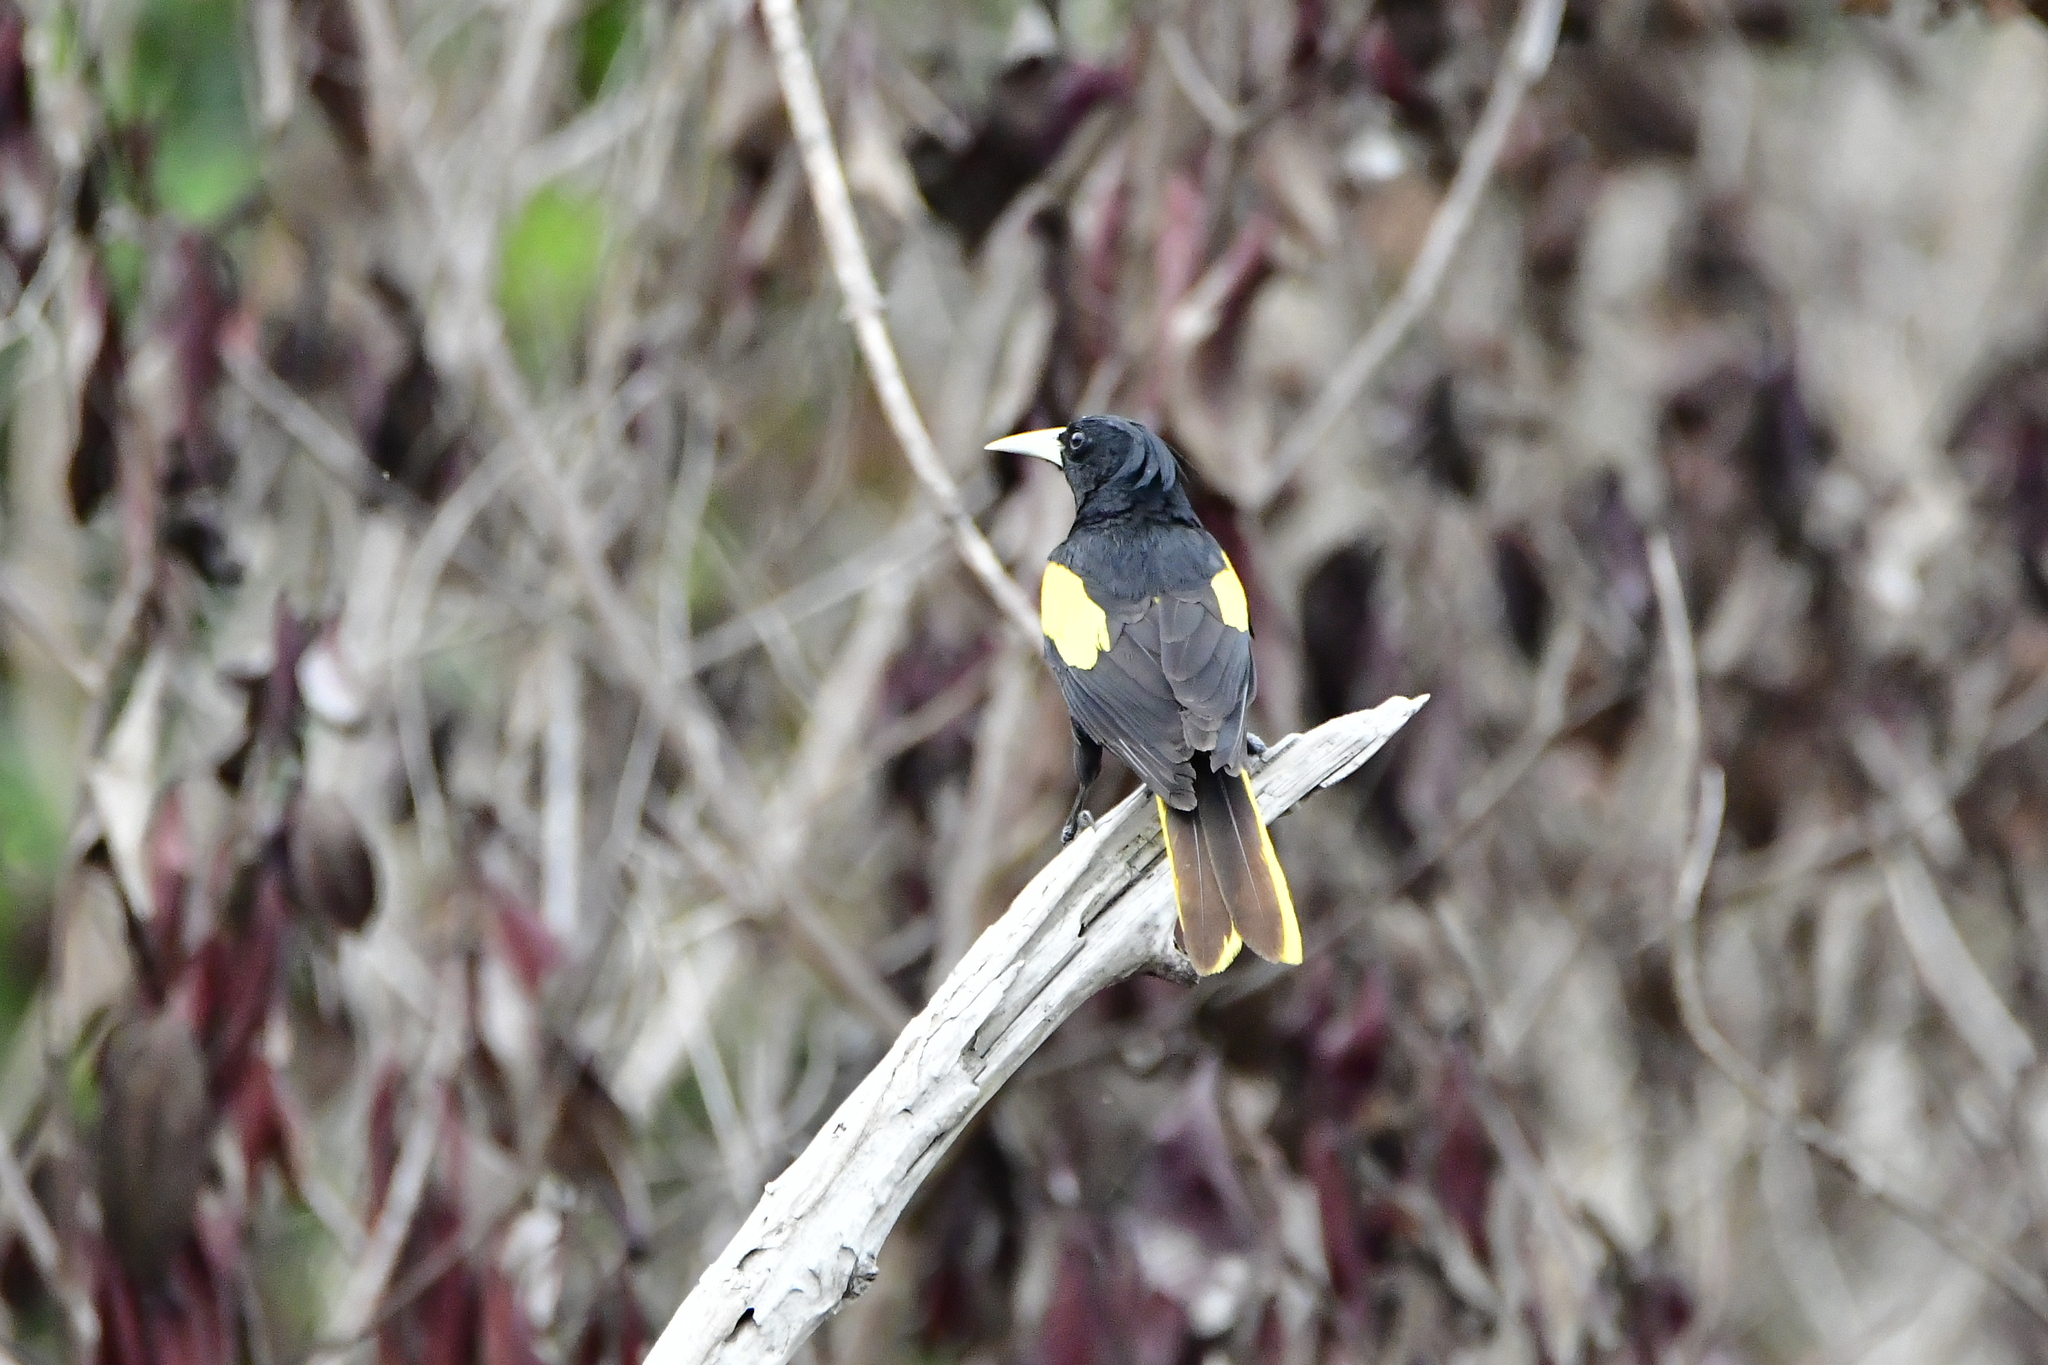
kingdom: Animalia
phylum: Chordata
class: Aves
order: Passeriformes
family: Icteridae
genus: Cacicus
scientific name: Cacicus melanicterus
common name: Yellow-winged cacique
